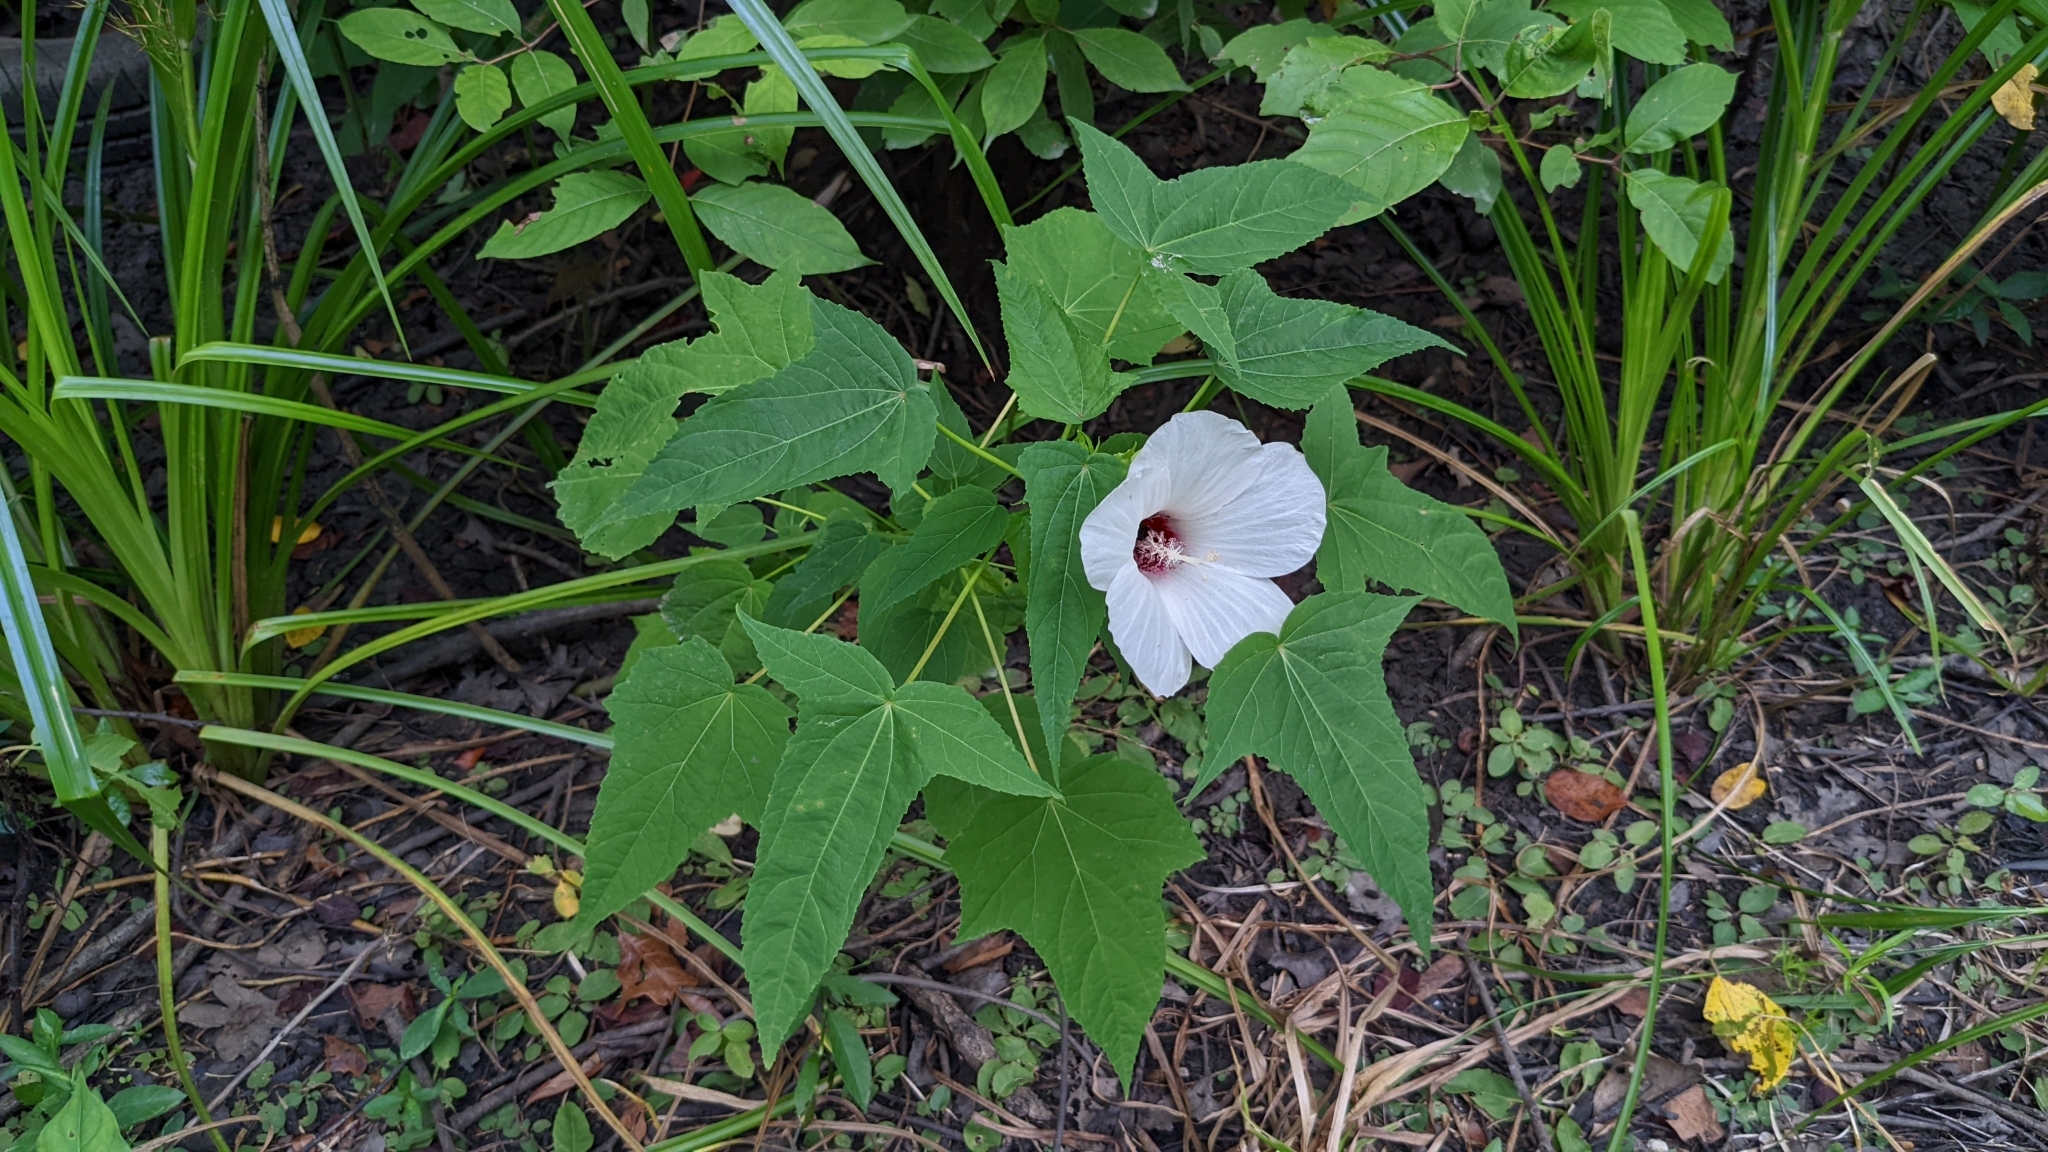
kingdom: Plantae
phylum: Tracheophyta
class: Magnoliopsida
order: Malvales
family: Malvaceae
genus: Hibiscus
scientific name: Hibiscus laevis
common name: Scarlet rose-mallow
